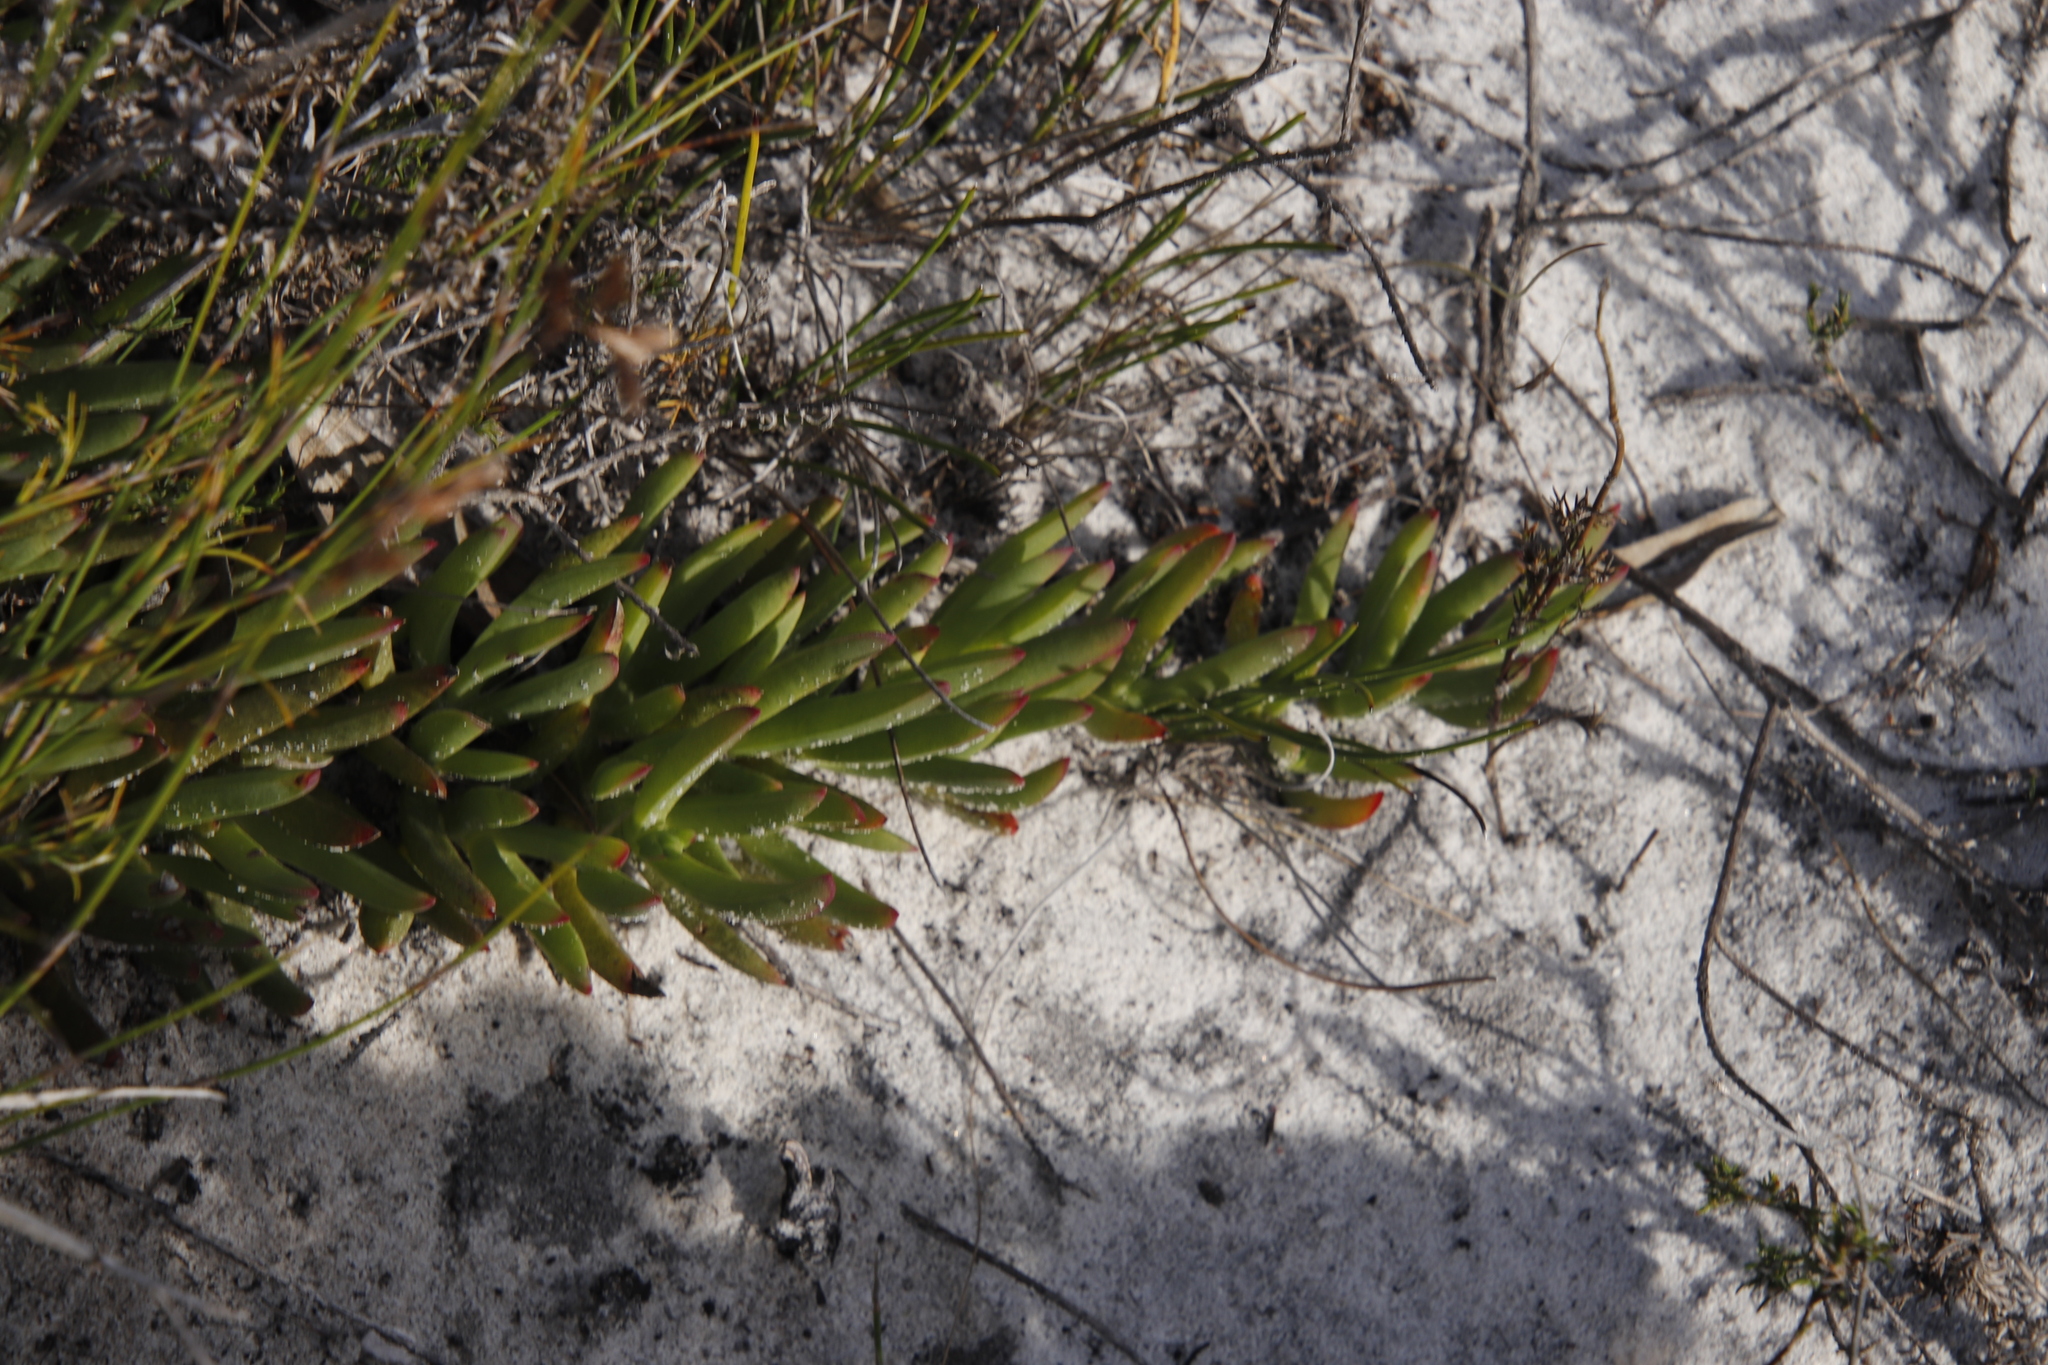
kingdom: Plantae
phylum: Tracheophyta
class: Magnoliopsida
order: Caryophyllales
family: Aizoaceae
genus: Ruschia
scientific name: Ruschia sarmentosa
